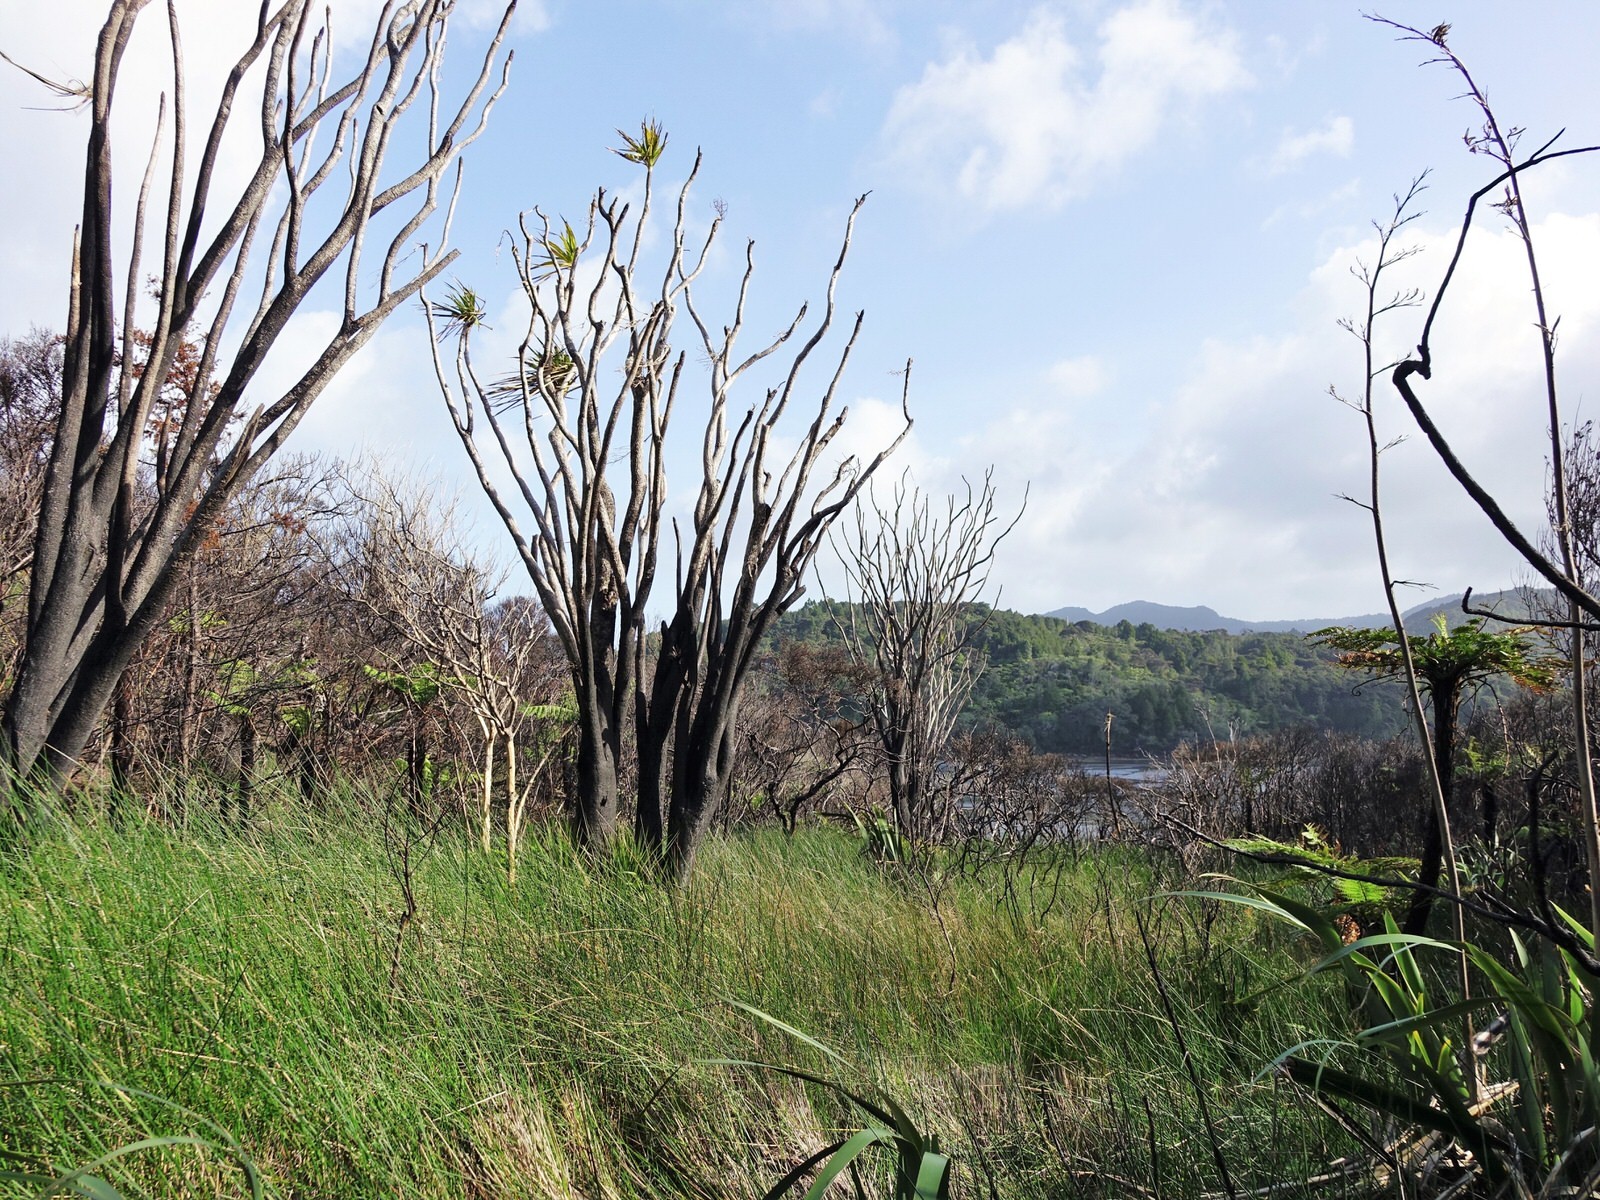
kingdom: Plantae
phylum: Tracheophyta
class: Liliopsida
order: Asparagales
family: Asparagaceae
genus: Cordyline
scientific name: Cordyline australis
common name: Cabbage-palm
